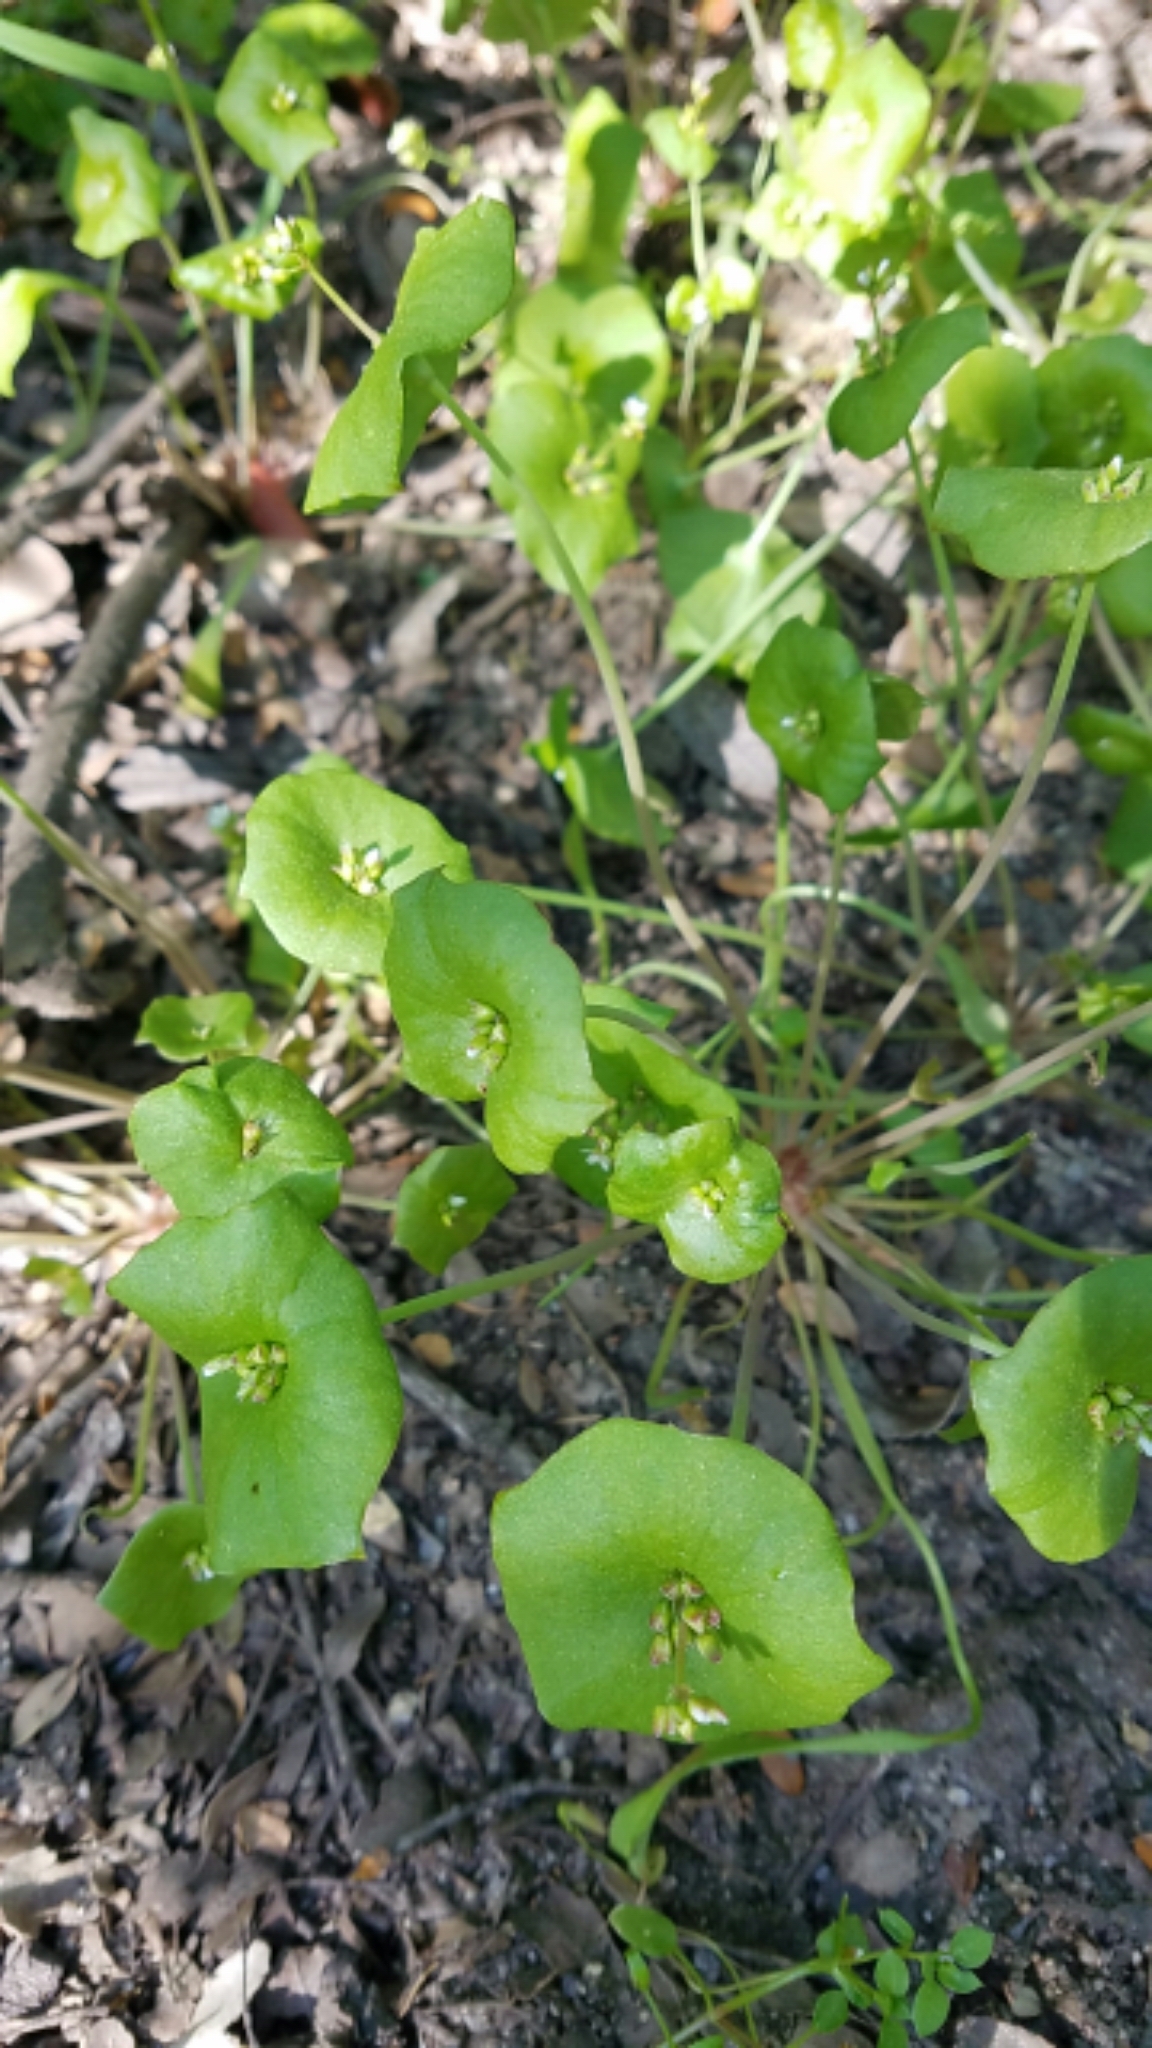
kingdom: Plantae
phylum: Tracheophyta
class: Magnoliopsida
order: Caryophyllales
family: Montiaceae
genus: Claytonia
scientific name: Claytonia perfoliata
